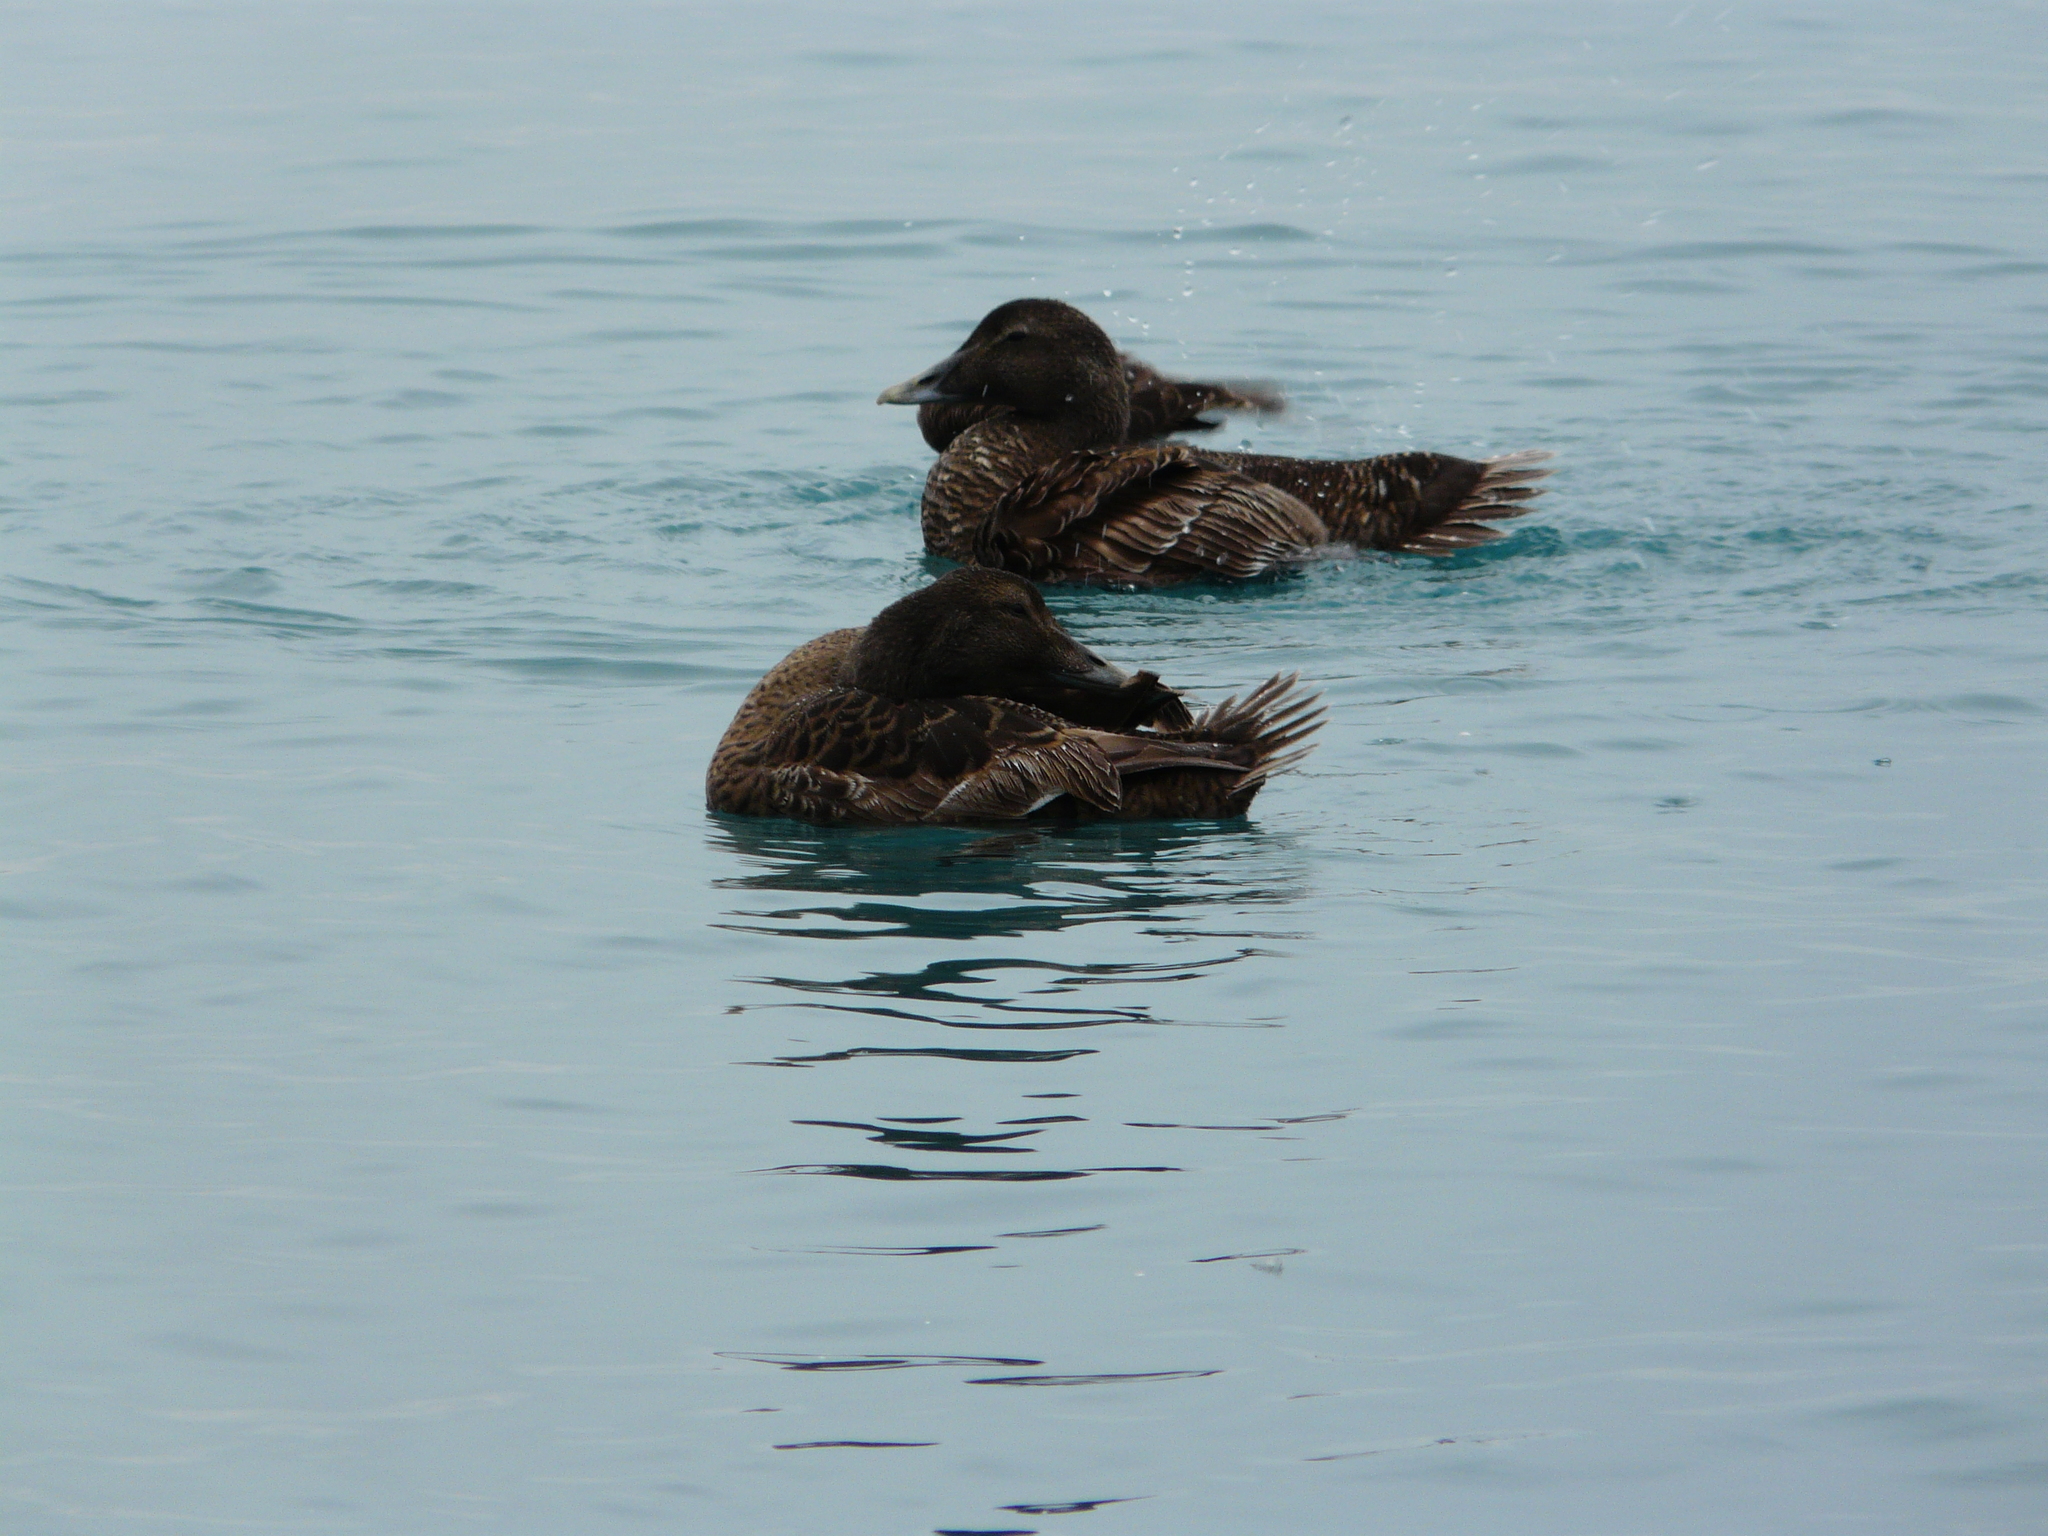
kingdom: Animalia
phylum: Chordata
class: Aves
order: Anseriformes
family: Anatidae
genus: Somateria
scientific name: Somateria mollissima
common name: Common eider
